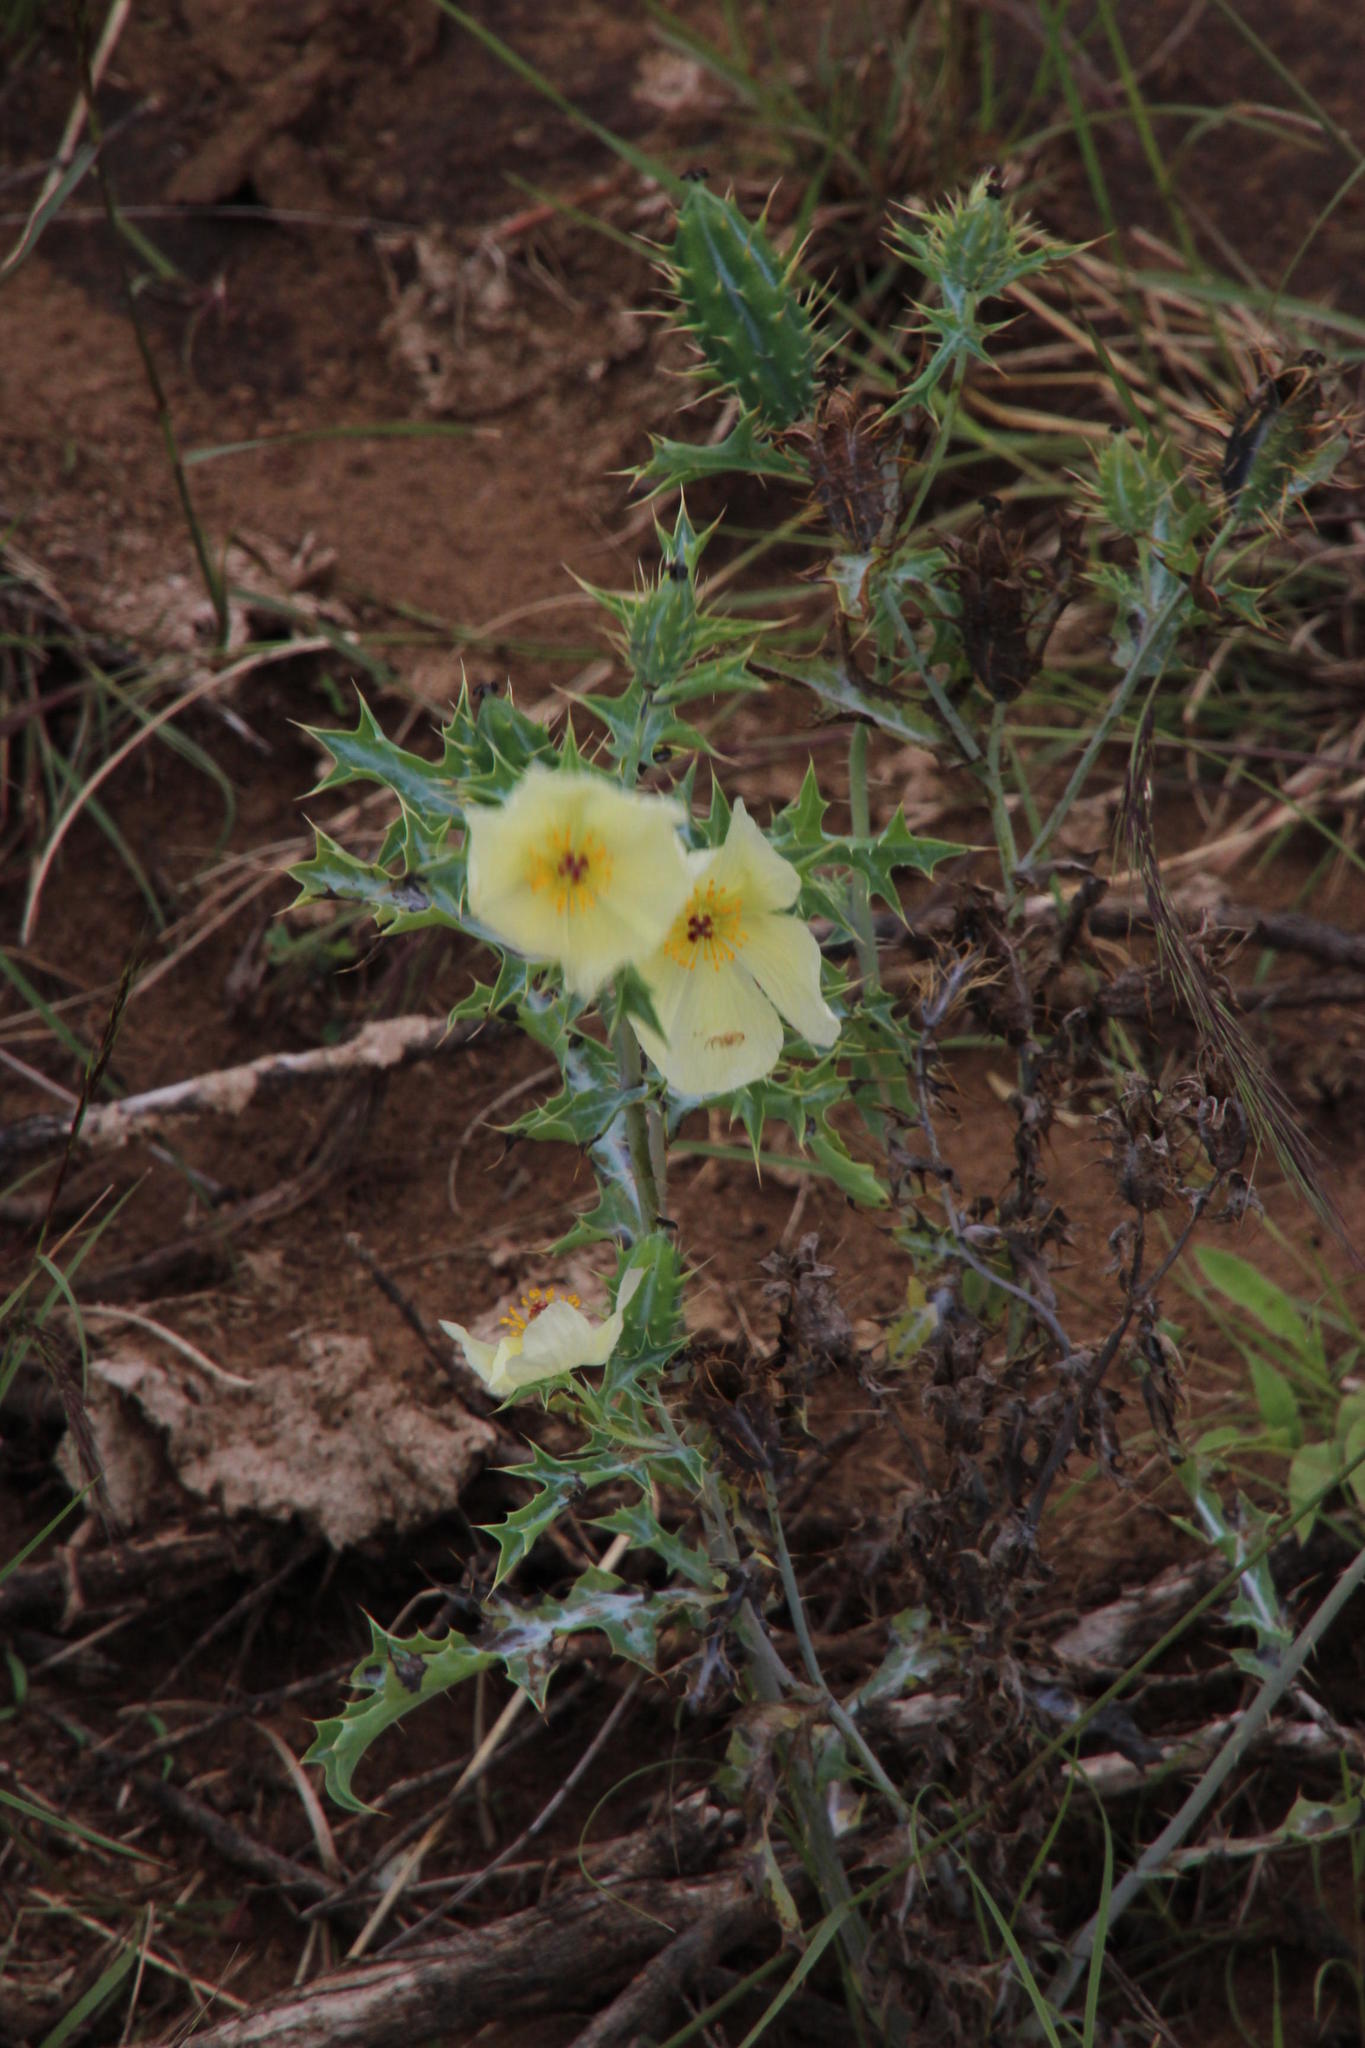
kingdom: Plantae
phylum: Tracheophyta
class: Magnoliopsida
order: Ranunculales
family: Papaveraceae
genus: Argemone
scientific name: Argemone ochroleuca
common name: White-flower mexican-poppy
